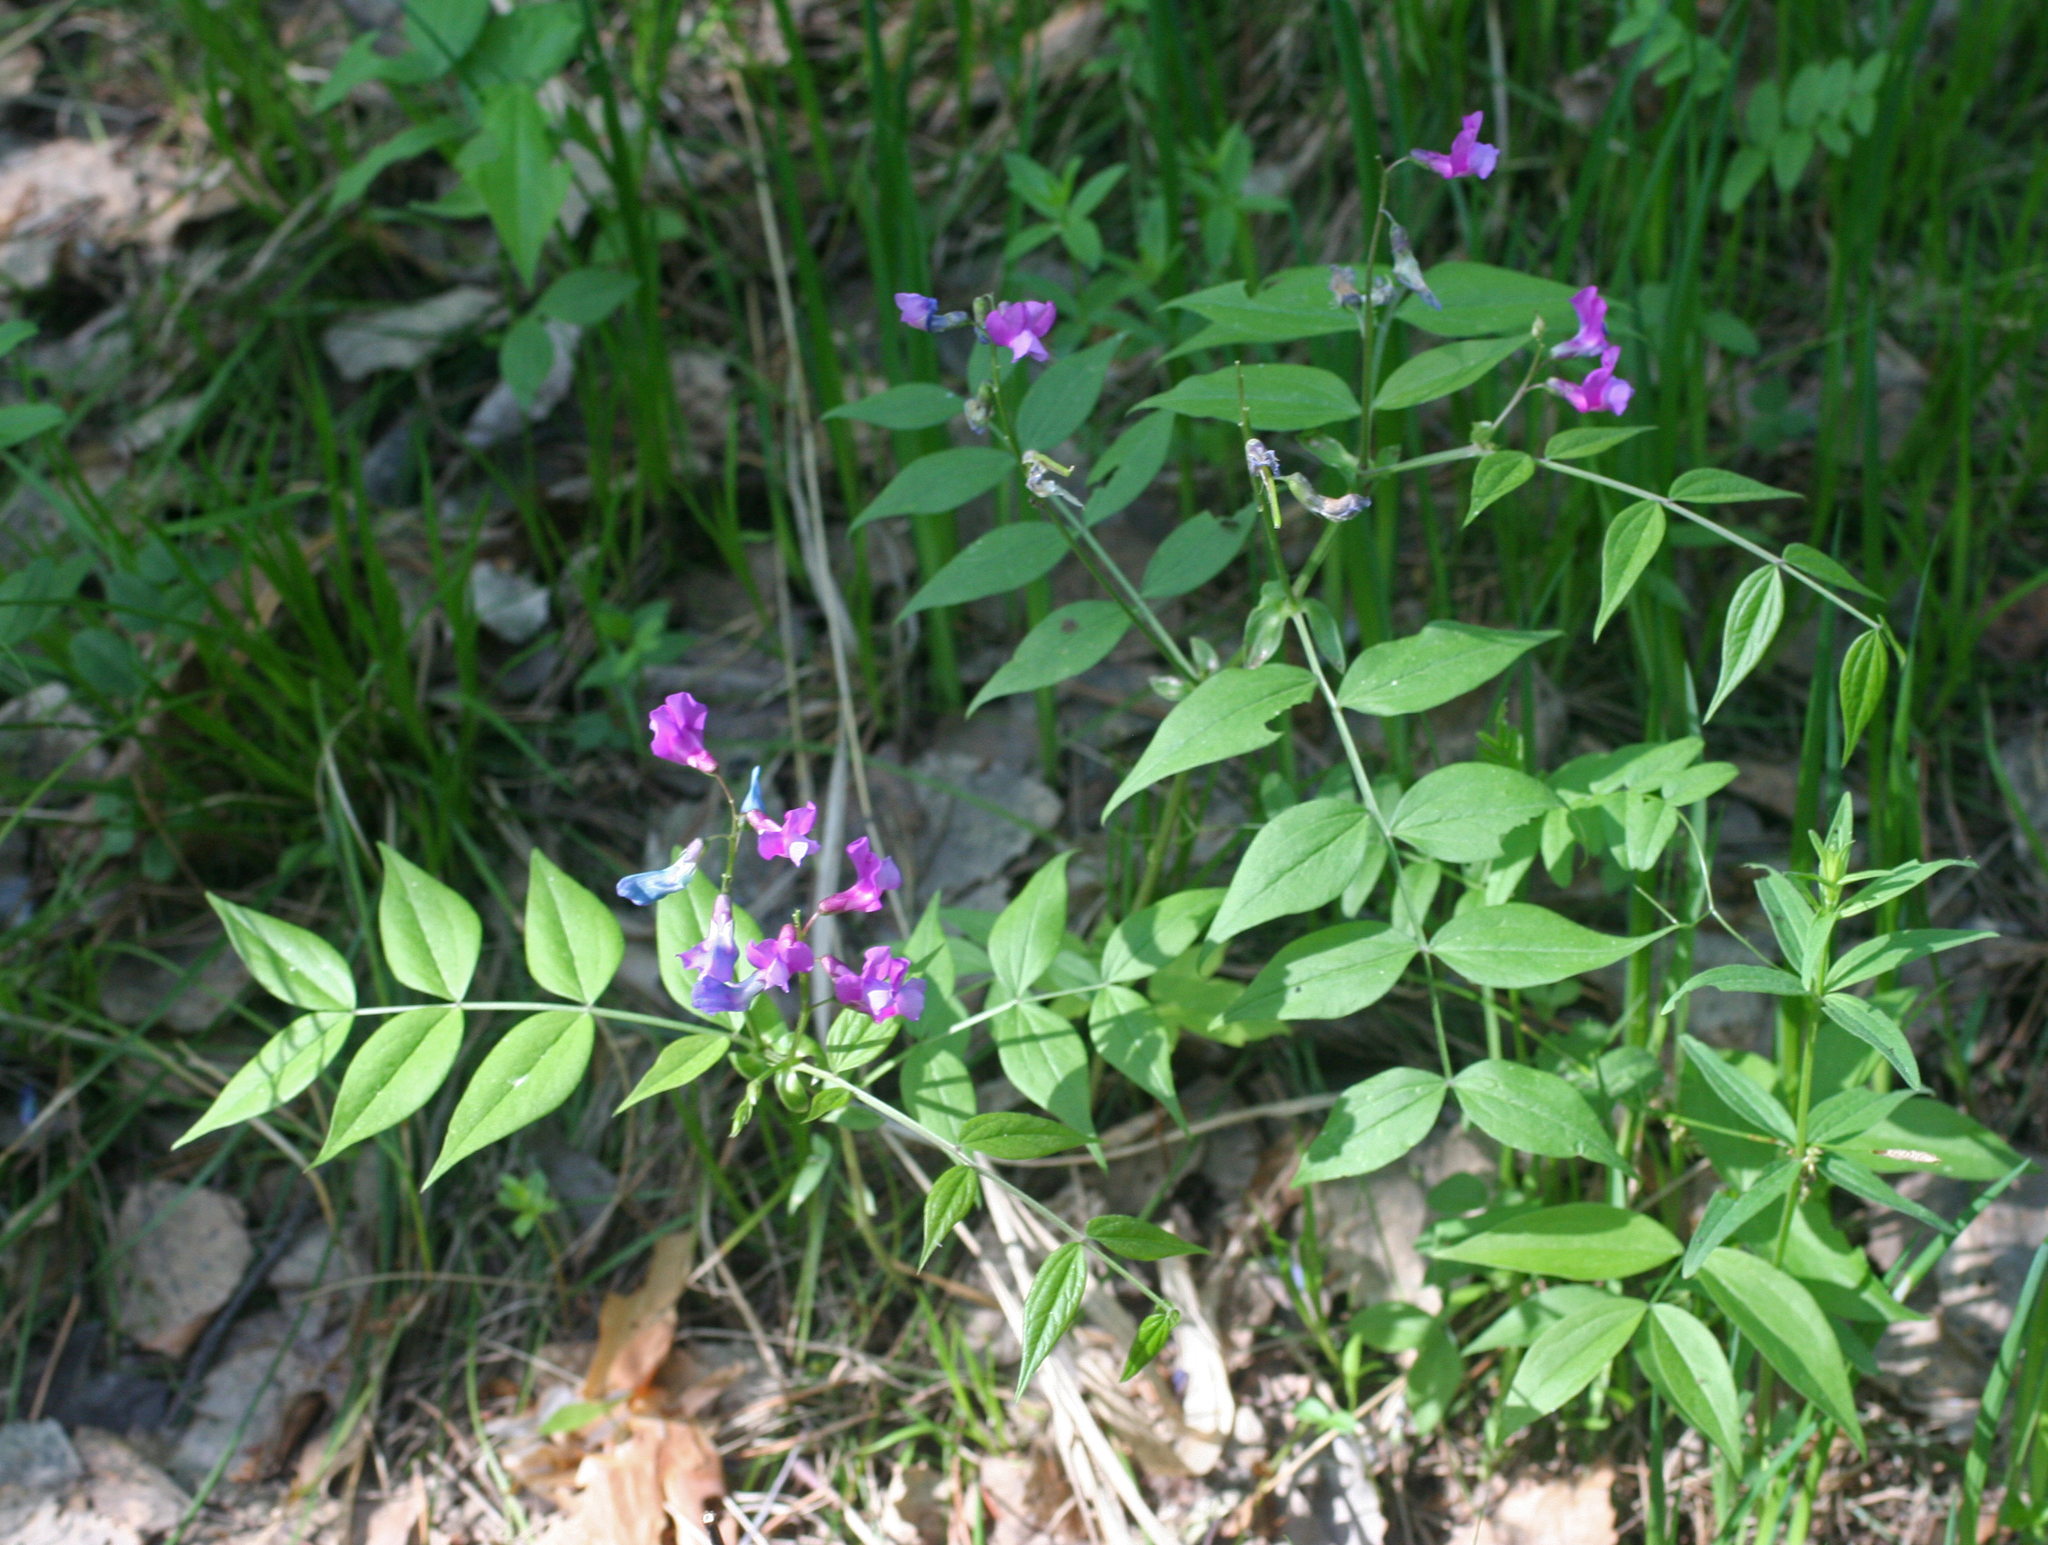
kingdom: Plantae
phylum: Tracheophyta
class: Magnoliopsida
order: Fabales
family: Fabaceae
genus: Lathyrus
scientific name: Lathyrus vernus
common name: Spring pea
